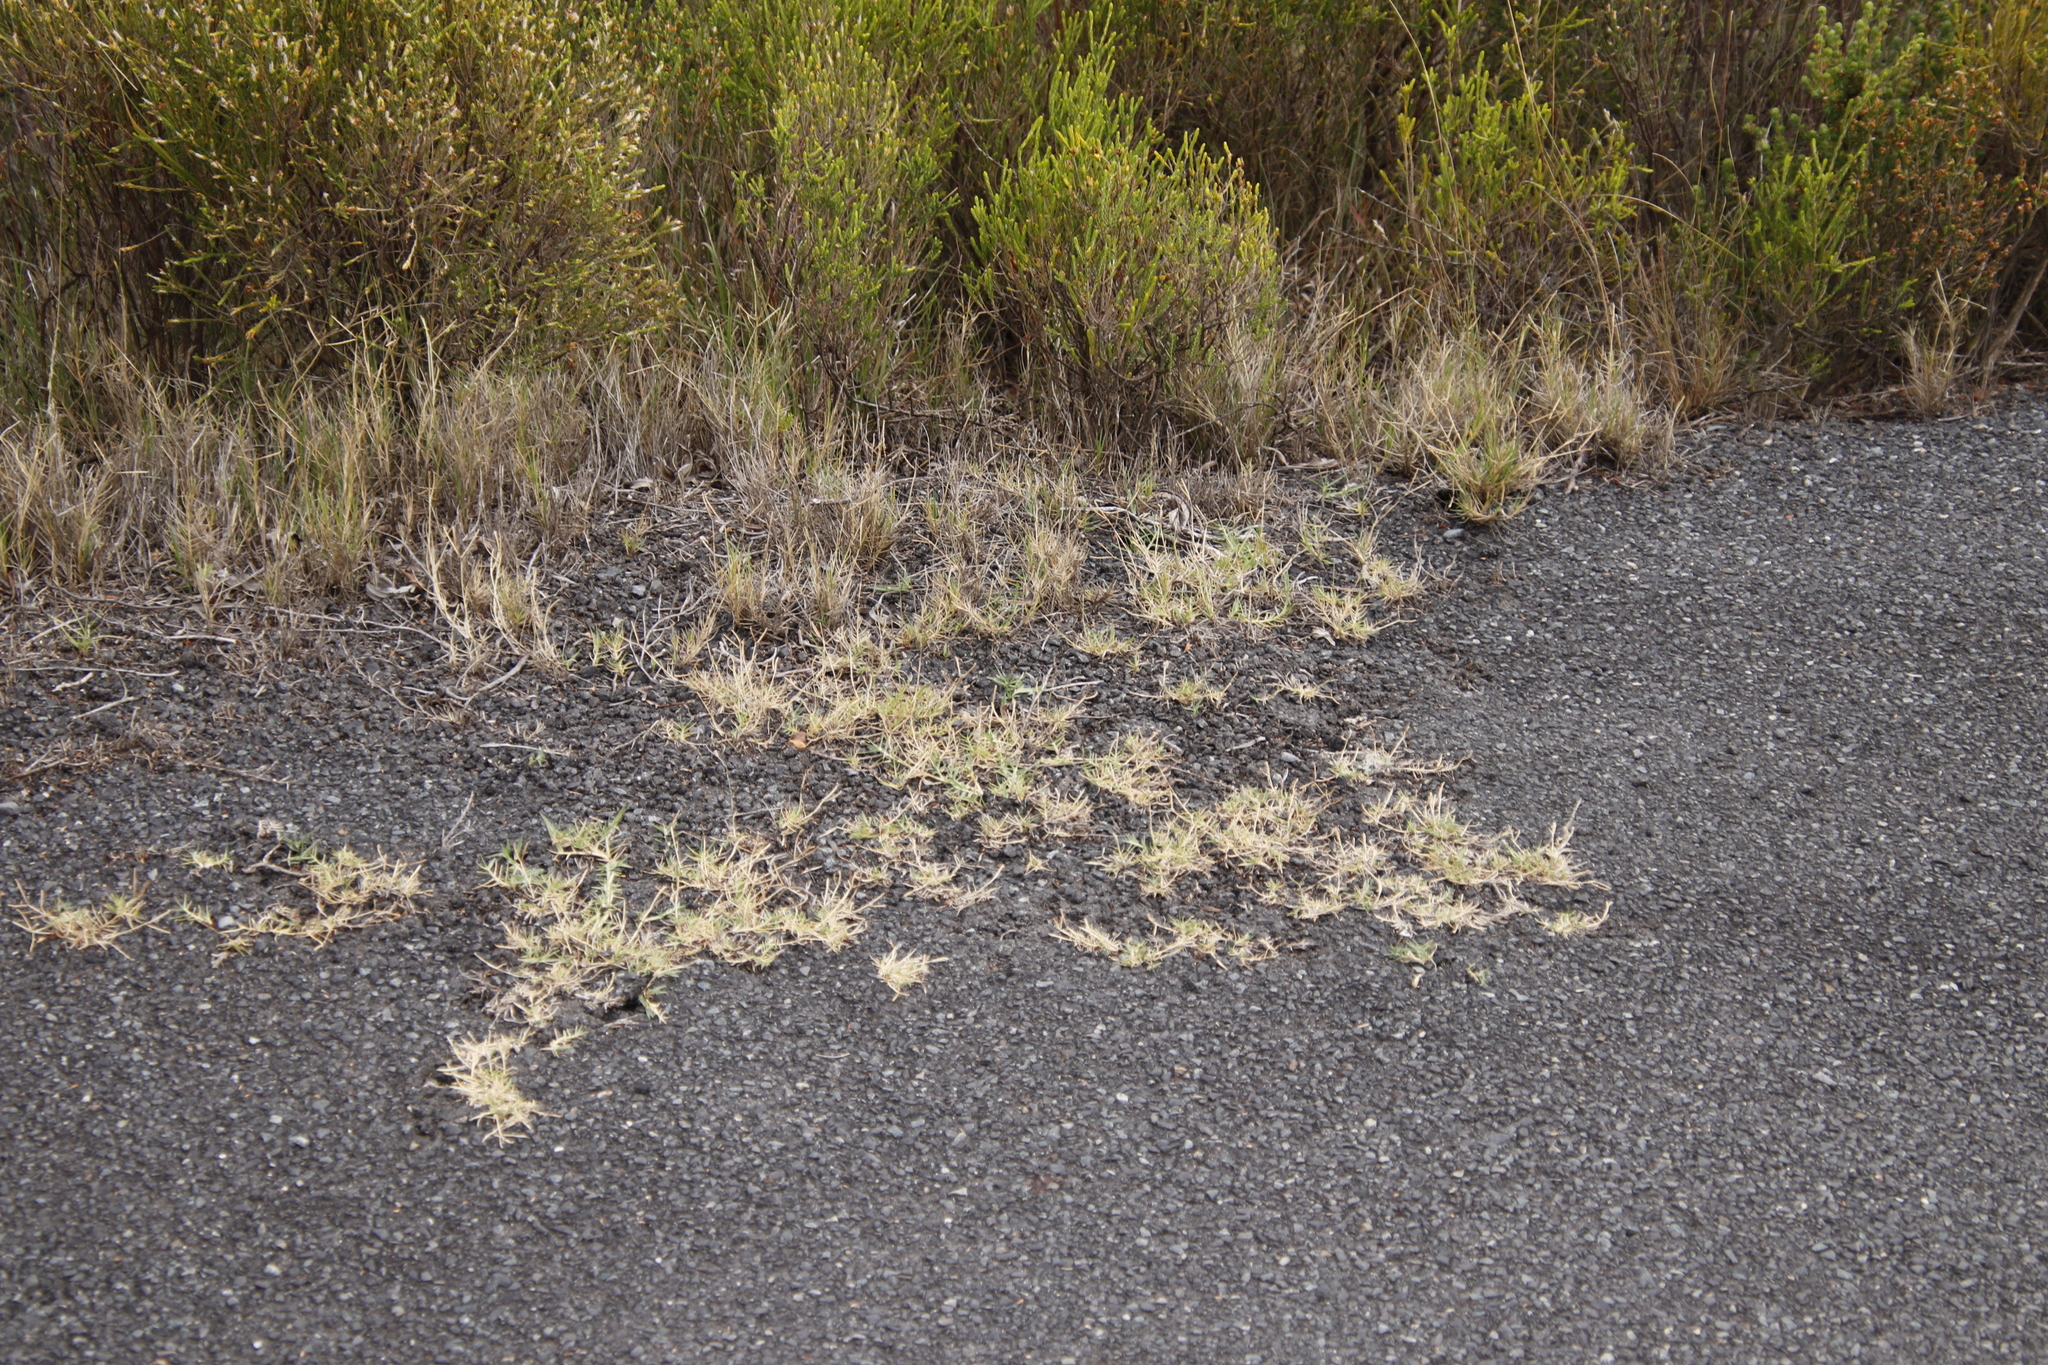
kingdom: Plantae
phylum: Tracheophyta
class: Liliopsida
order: Poales
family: Poaceae
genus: Cynodon
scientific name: Cynodon dactylon
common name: Bermuda grass
